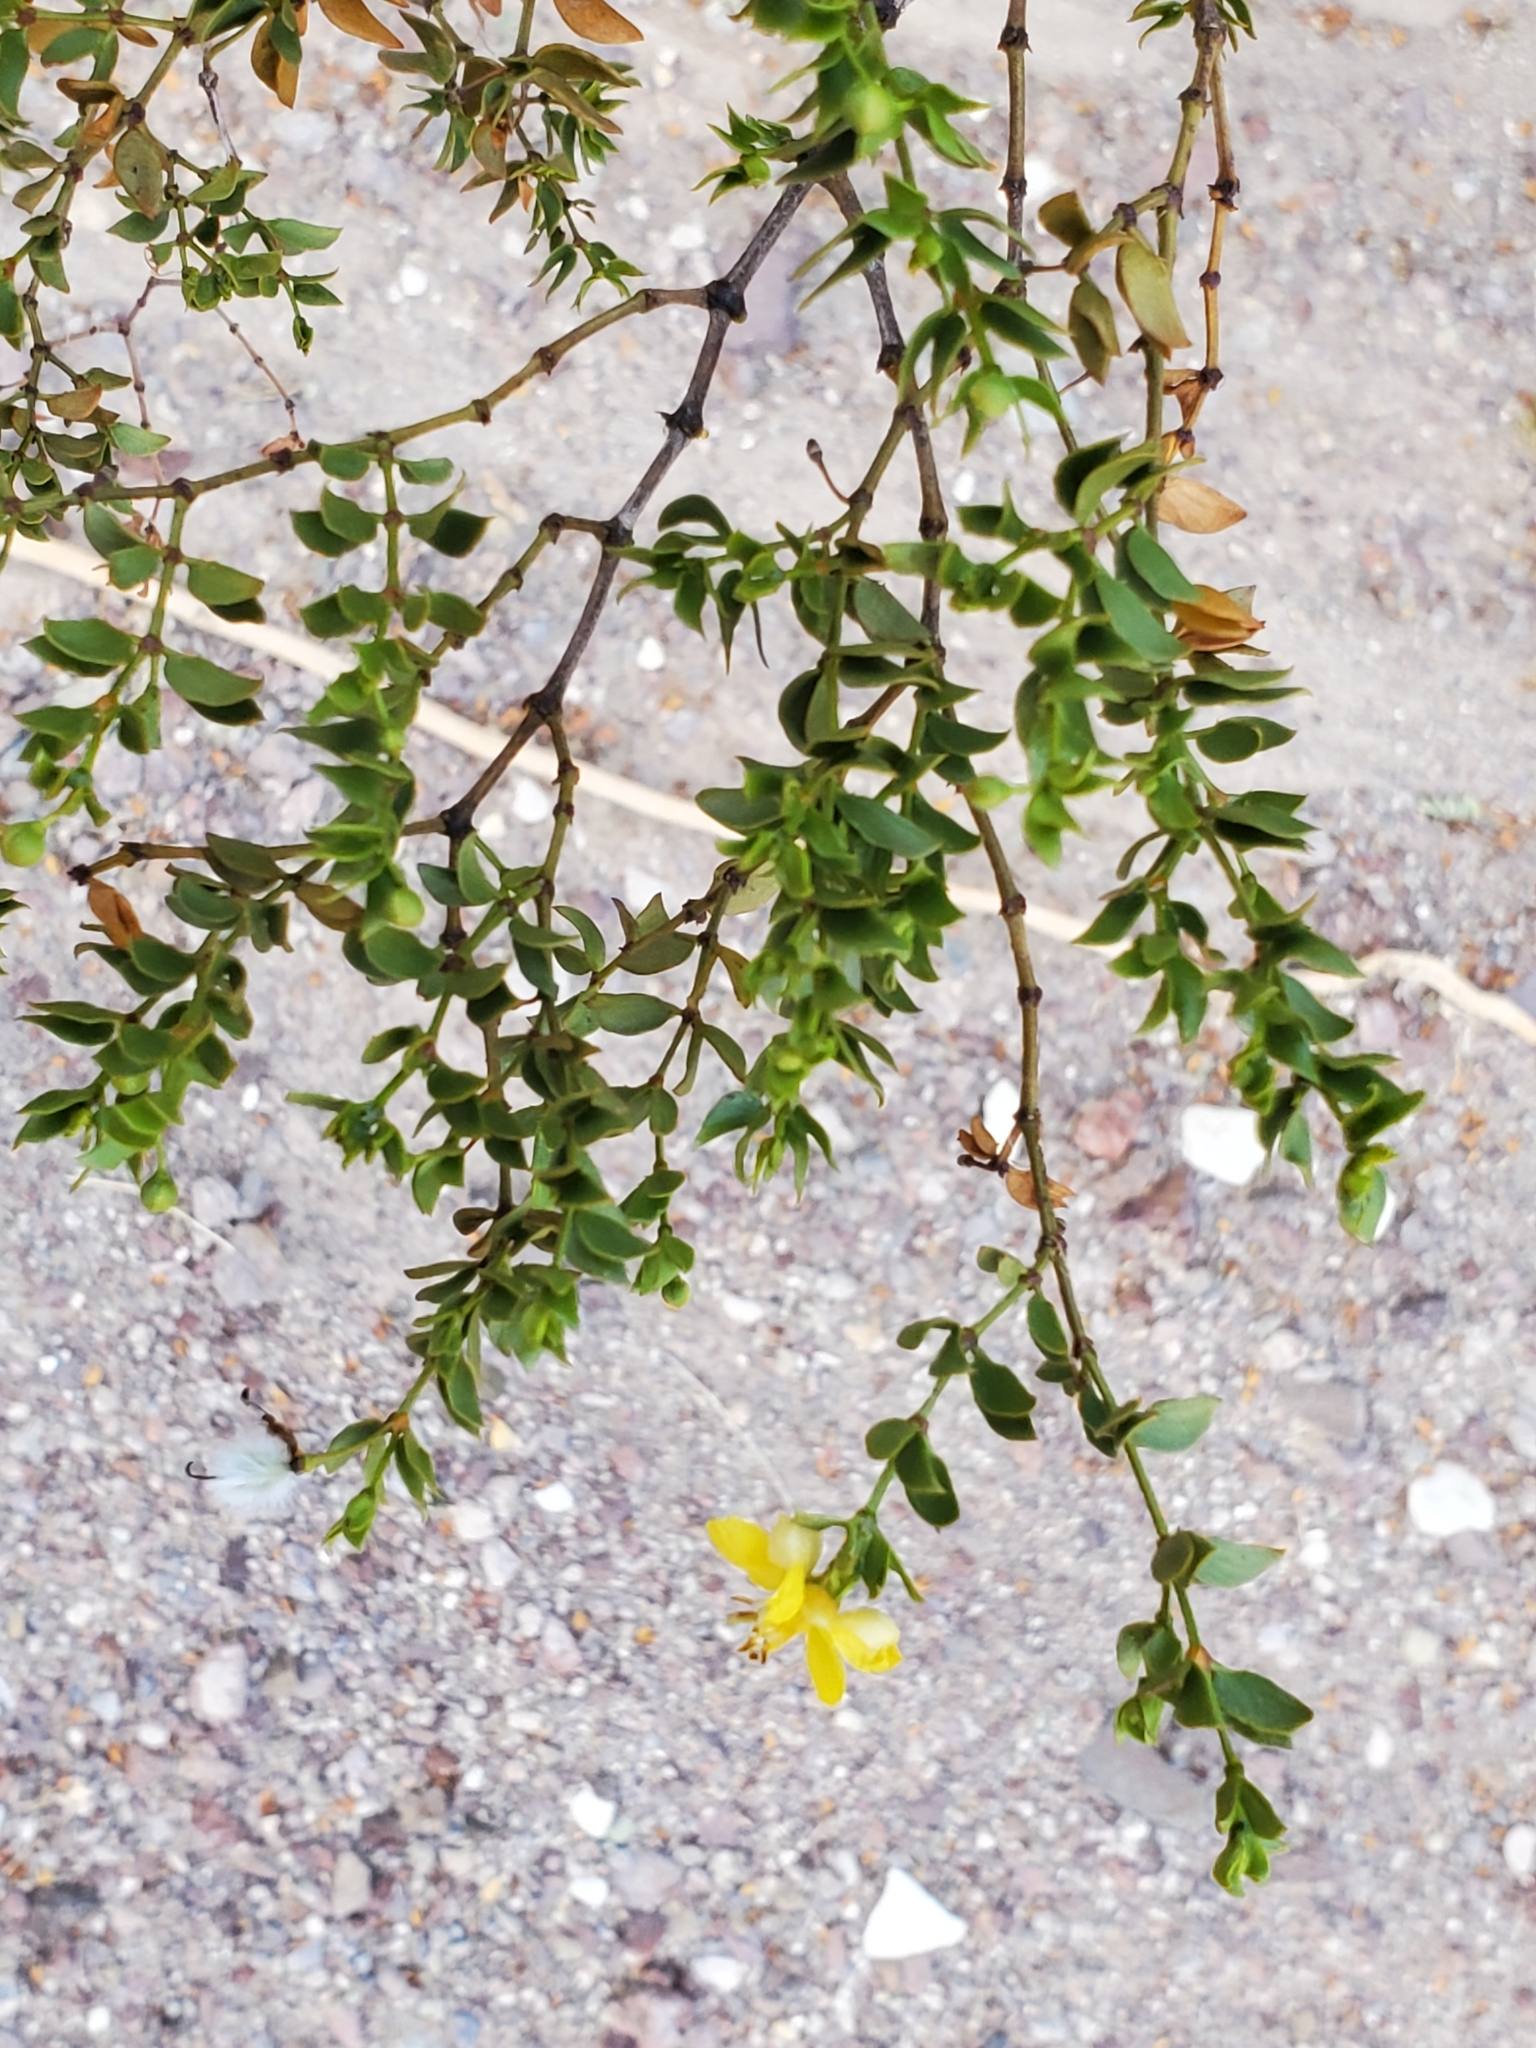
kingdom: Plantae
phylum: Tracheophyta
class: Magnoliopsida
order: Zygophyllales
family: Zygophyllaceae
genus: Larrea
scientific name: Larrea tridentata
